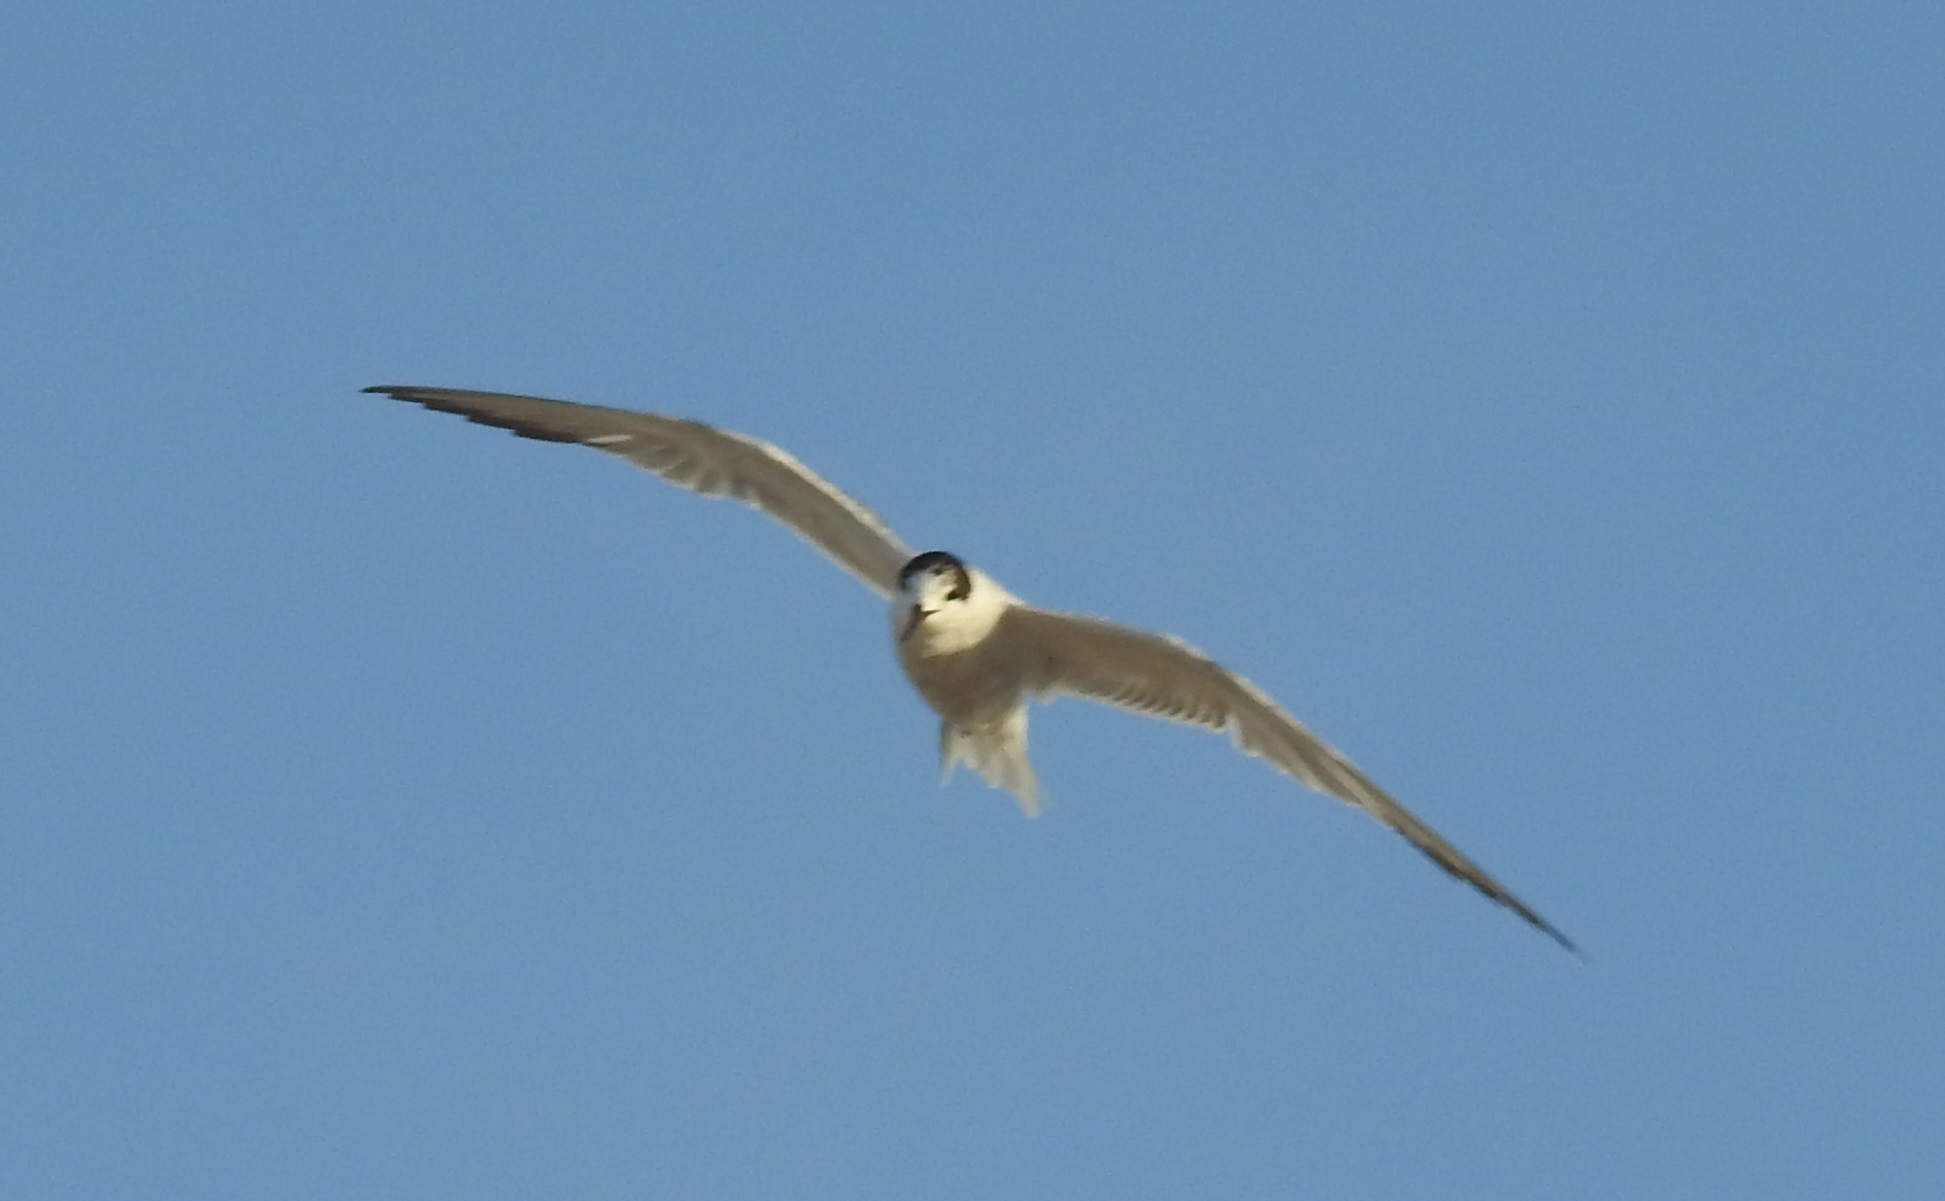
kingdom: Animalia
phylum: Chordata
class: Aves
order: Charadriiformes
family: Laridae
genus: Thalasseus
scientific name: Thalasseus sandvicensis
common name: Sandwich tern
